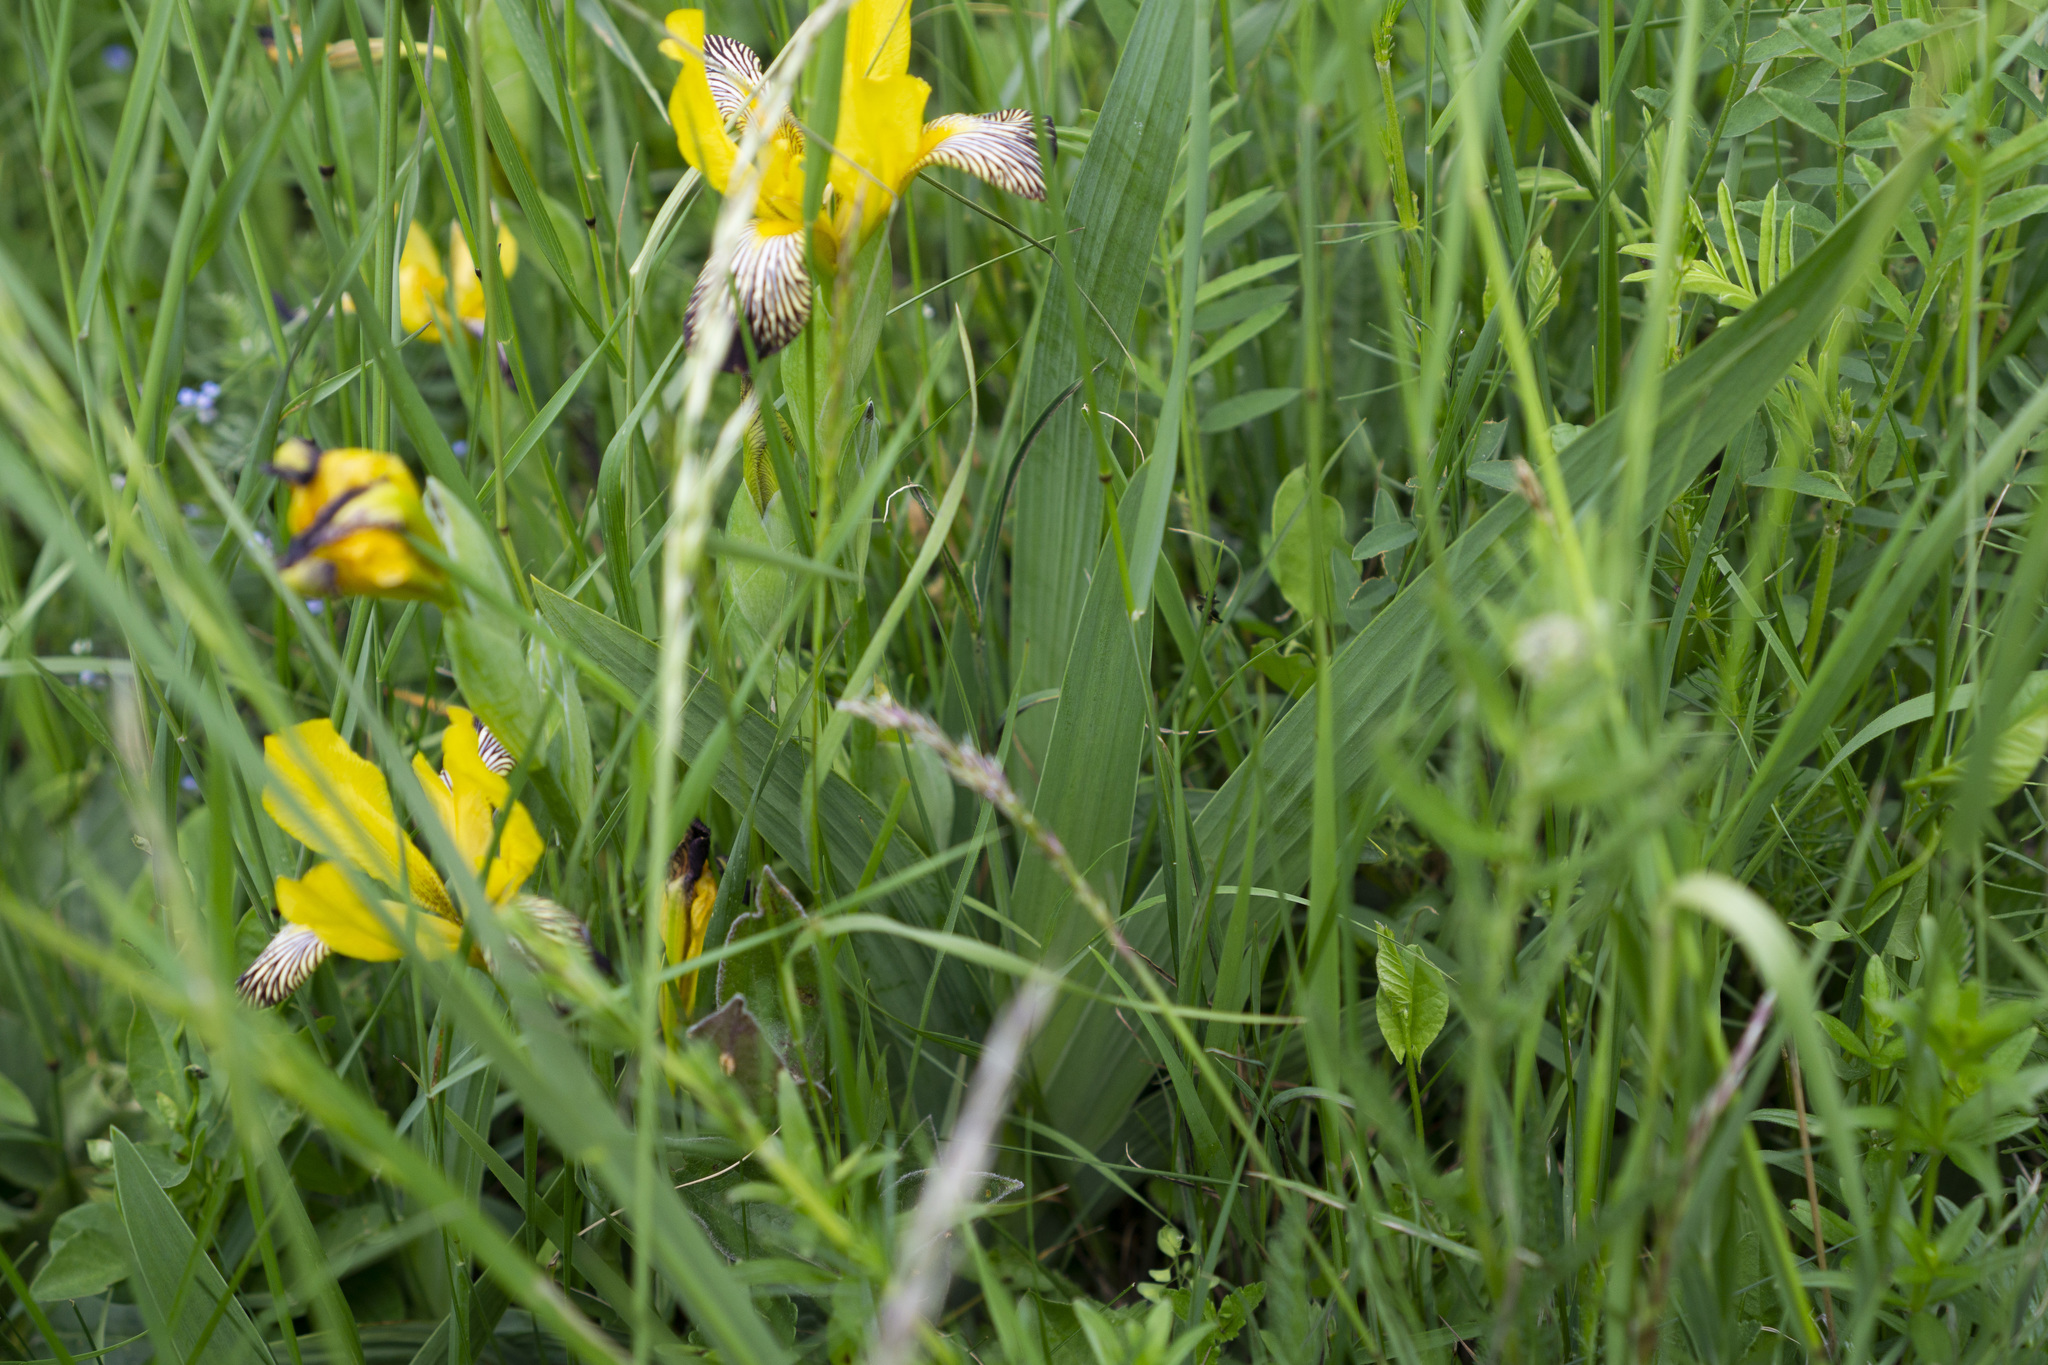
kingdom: Plantae
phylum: Tracheophyta
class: Liliopsida
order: Asparagales
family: Iridaceae
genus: Iris
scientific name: Iris variegata
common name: Hungarian iris
